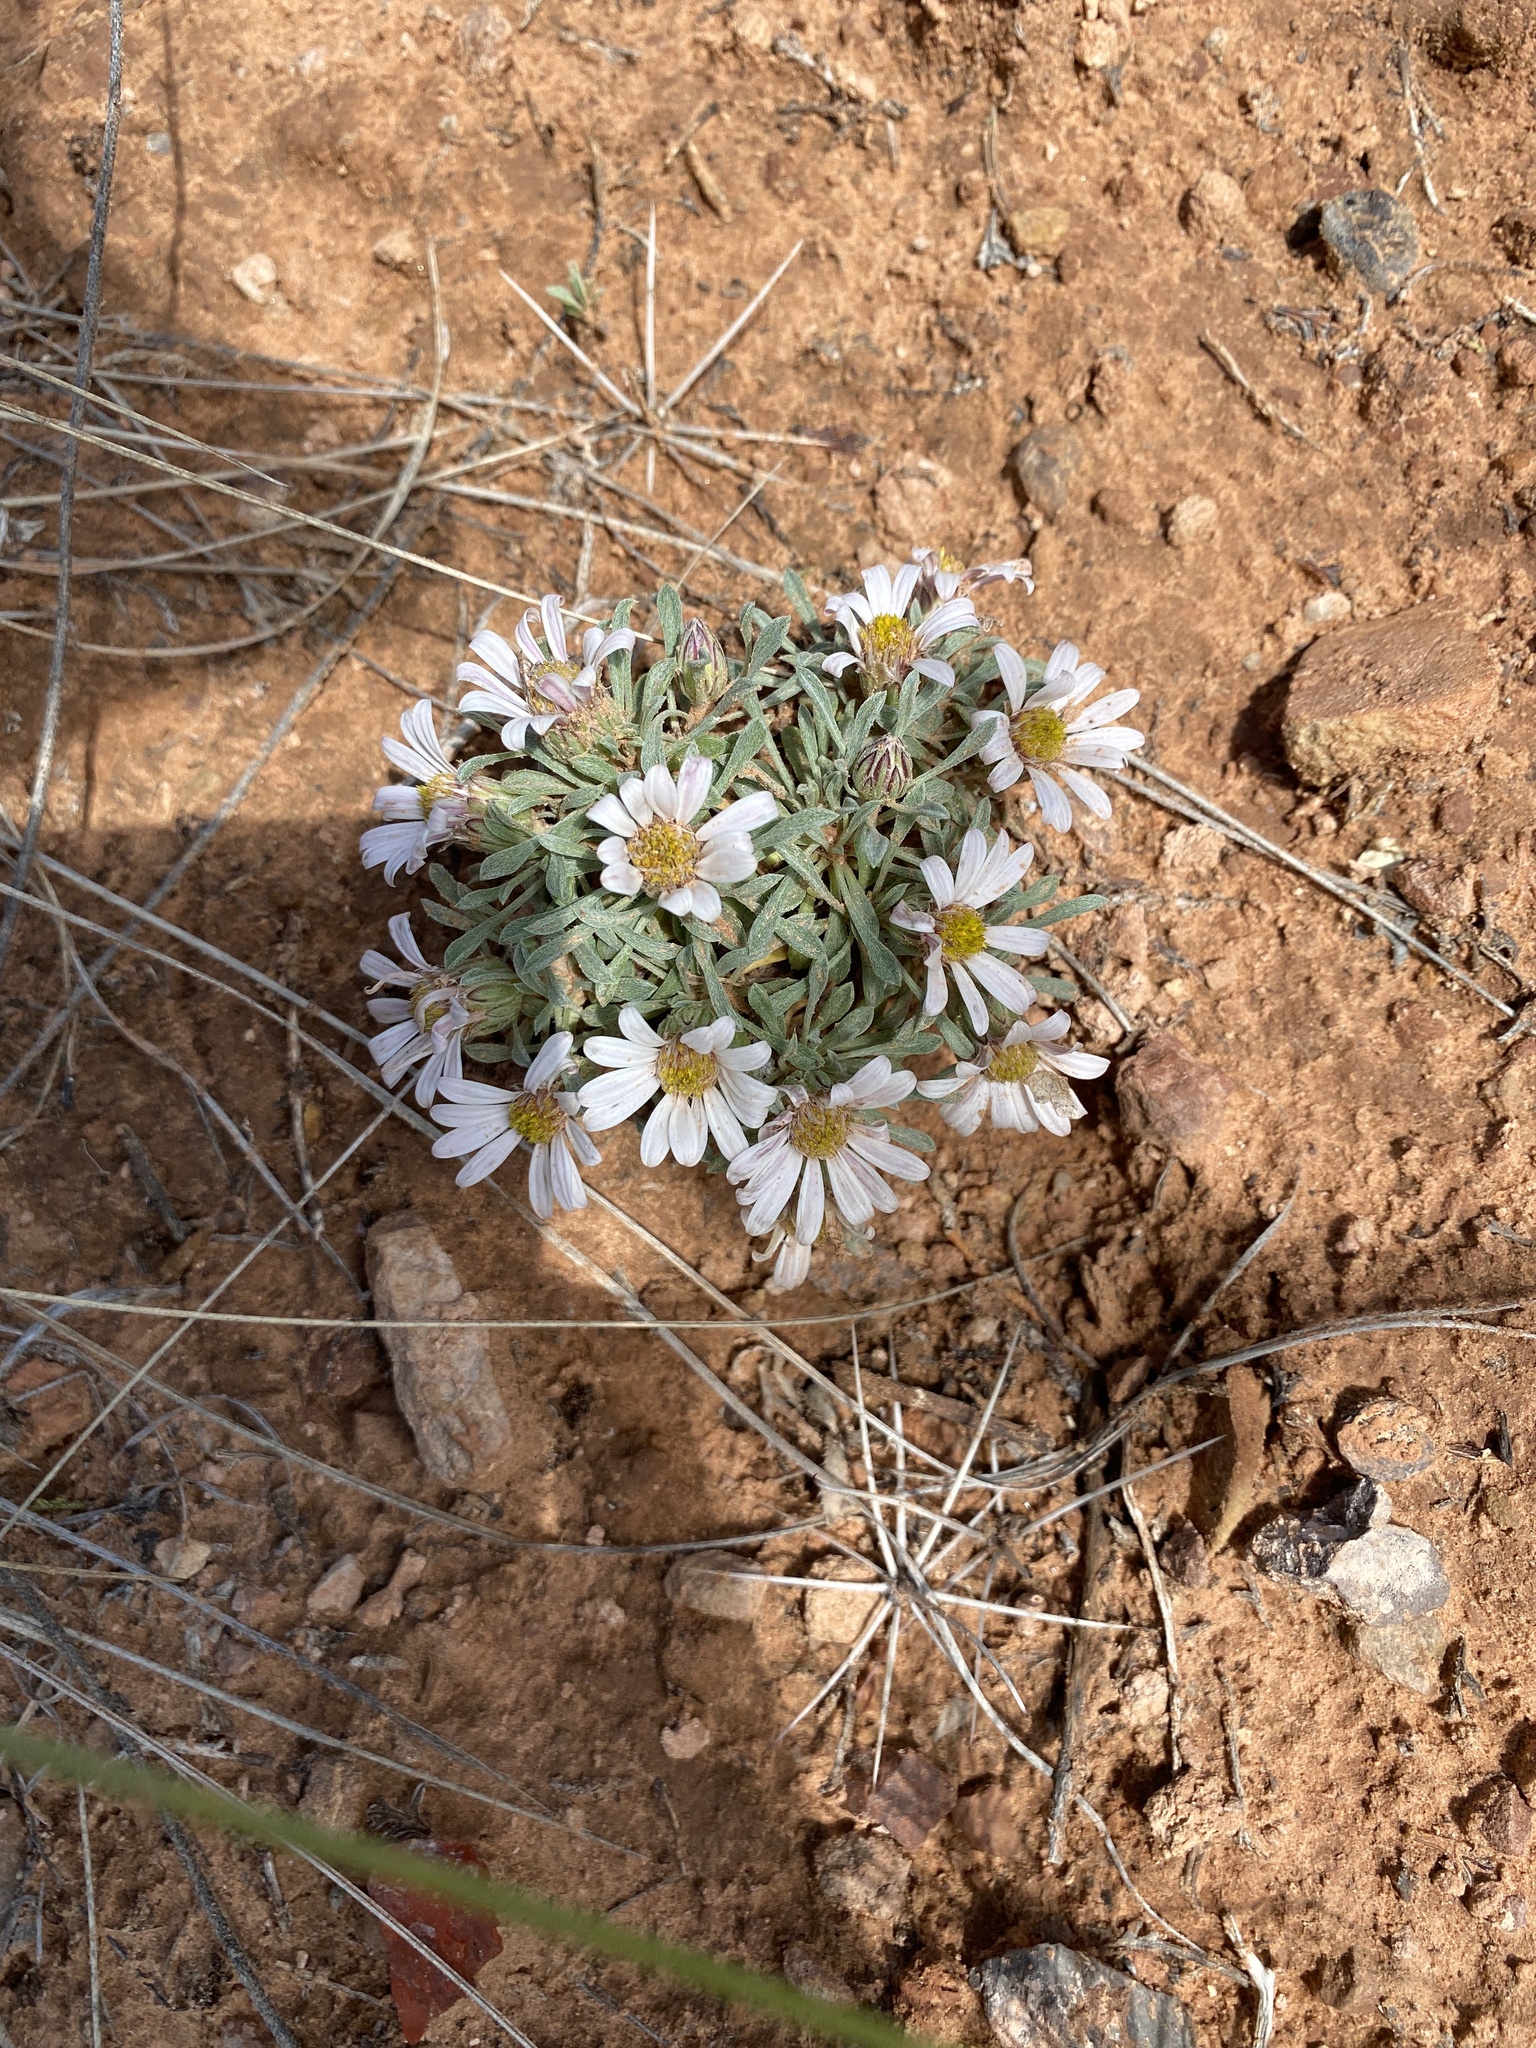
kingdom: Plantae
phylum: Tracheophyta
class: Magnoliopsida
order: Asterales
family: Asteraceae
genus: Townsendia
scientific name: Townsendia incana
